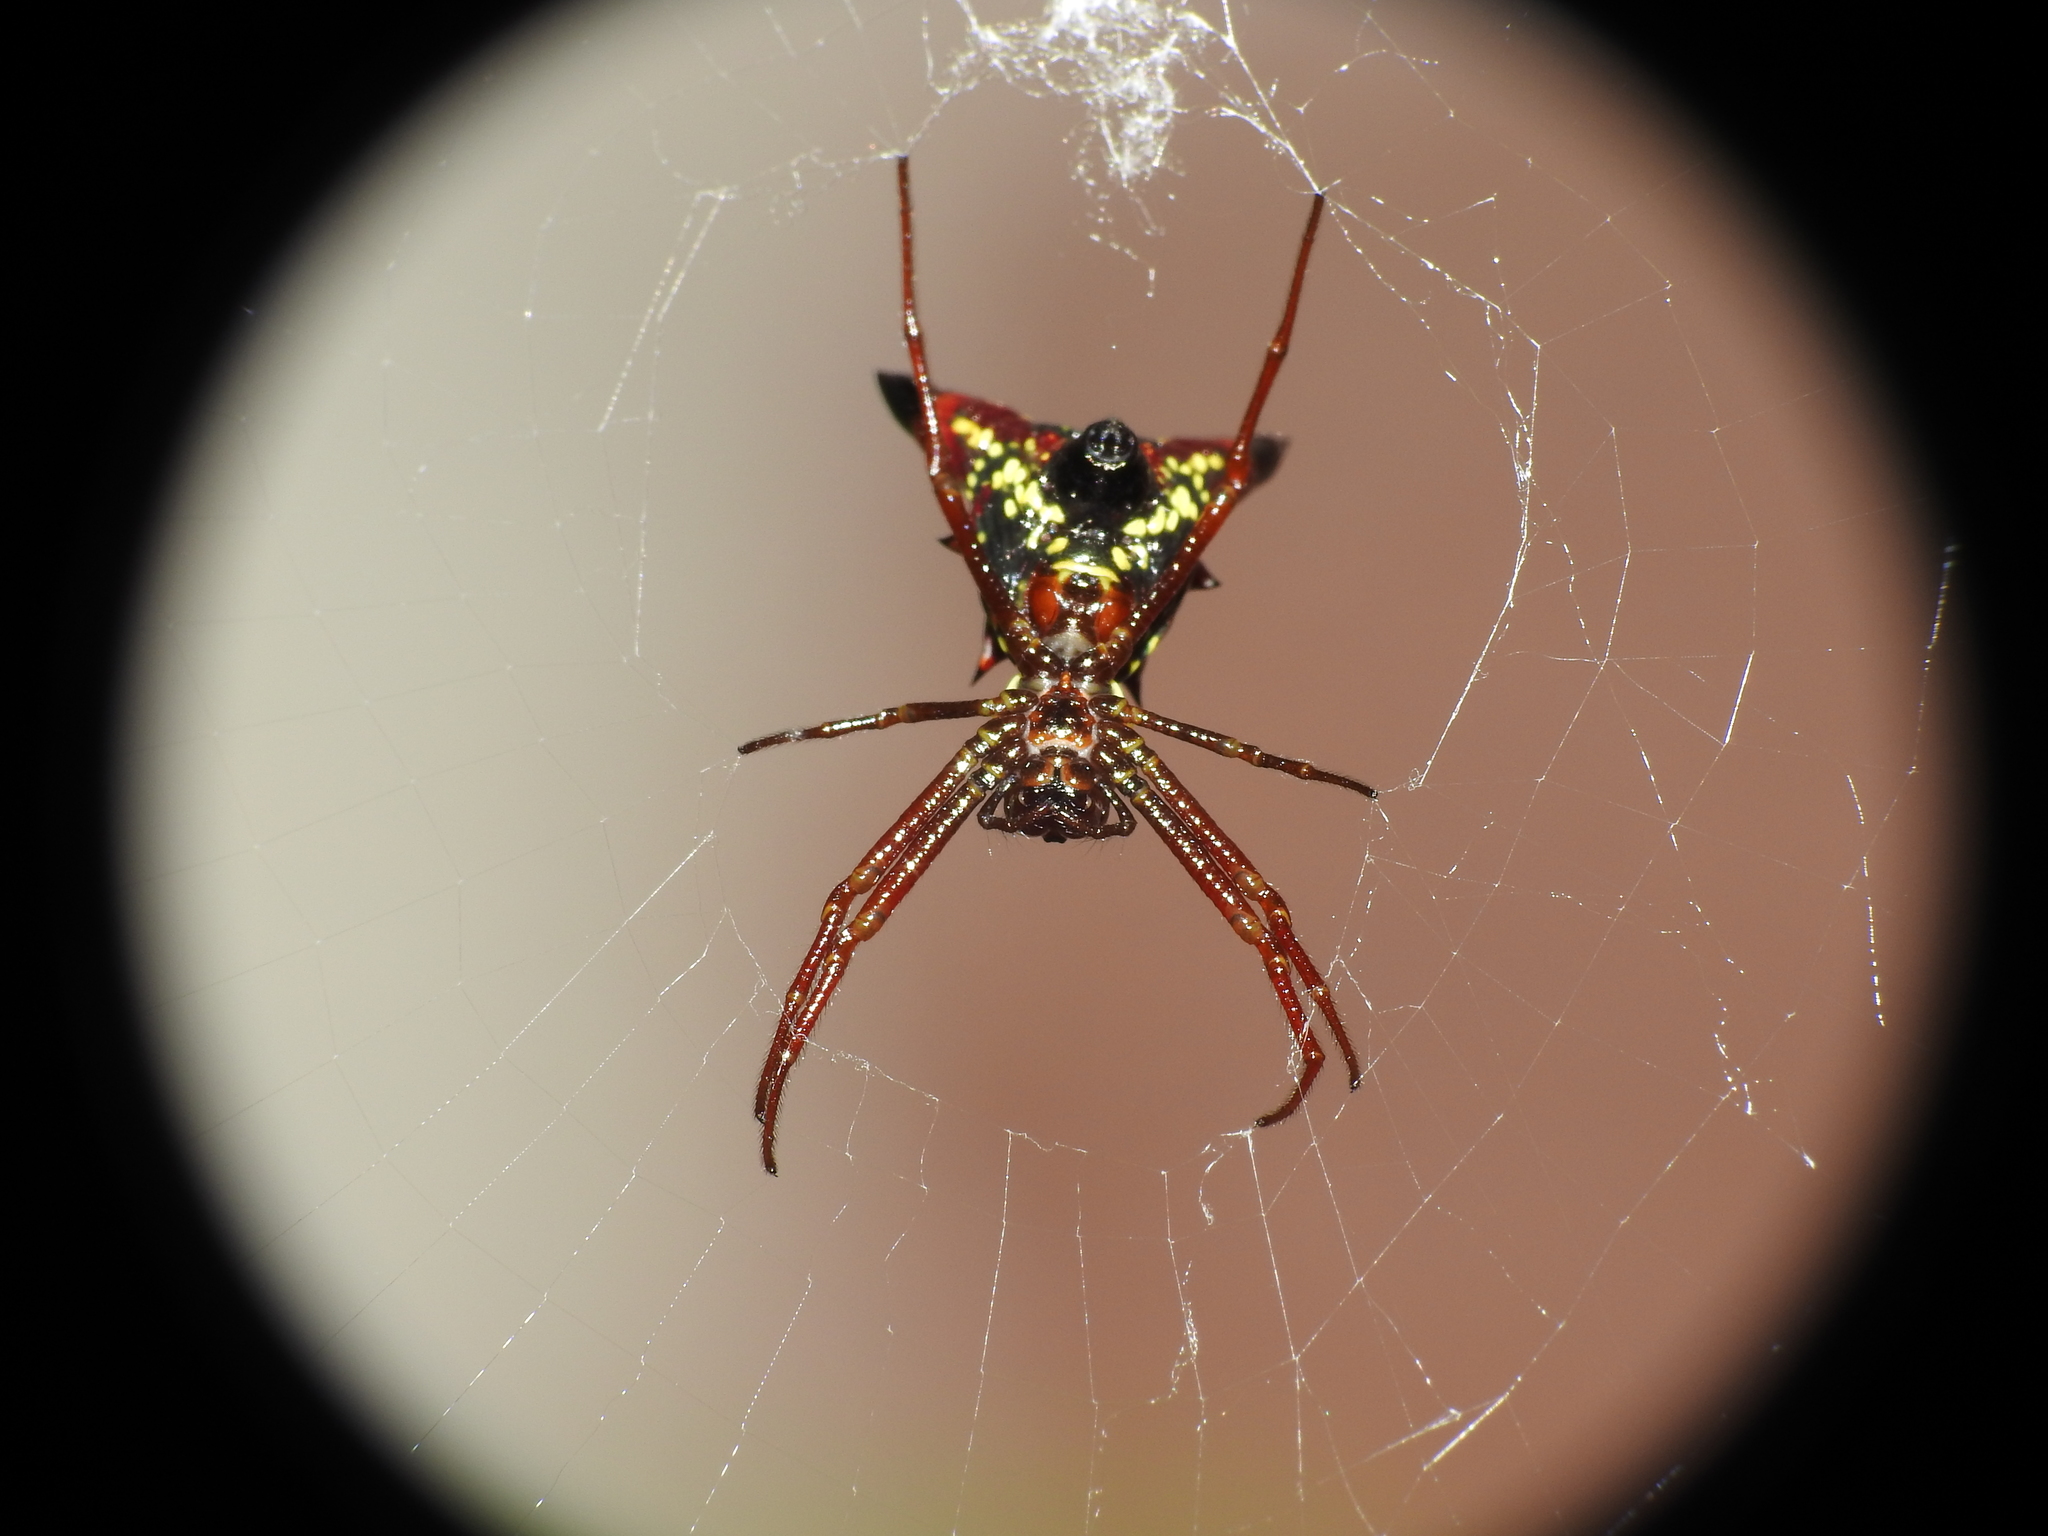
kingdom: Animalia
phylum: Arthropoda
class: Arachnida
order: Araneae
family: Araneidae
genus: Micrathena
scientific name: Micrathena sagittata
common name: Orb weavers
